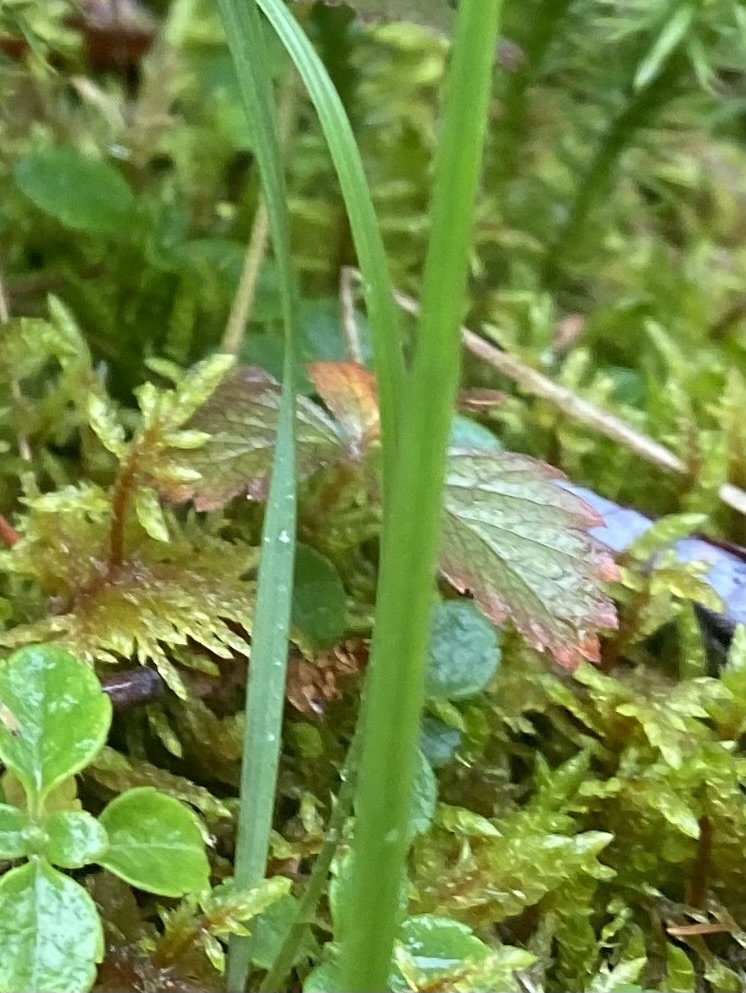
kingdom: Plantae
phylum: Tracheophyta
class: Magnoliopsida
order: Rosales
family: Rosaceae
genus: Rubus
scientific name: Rubus arcticus
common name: Arctic bramble
